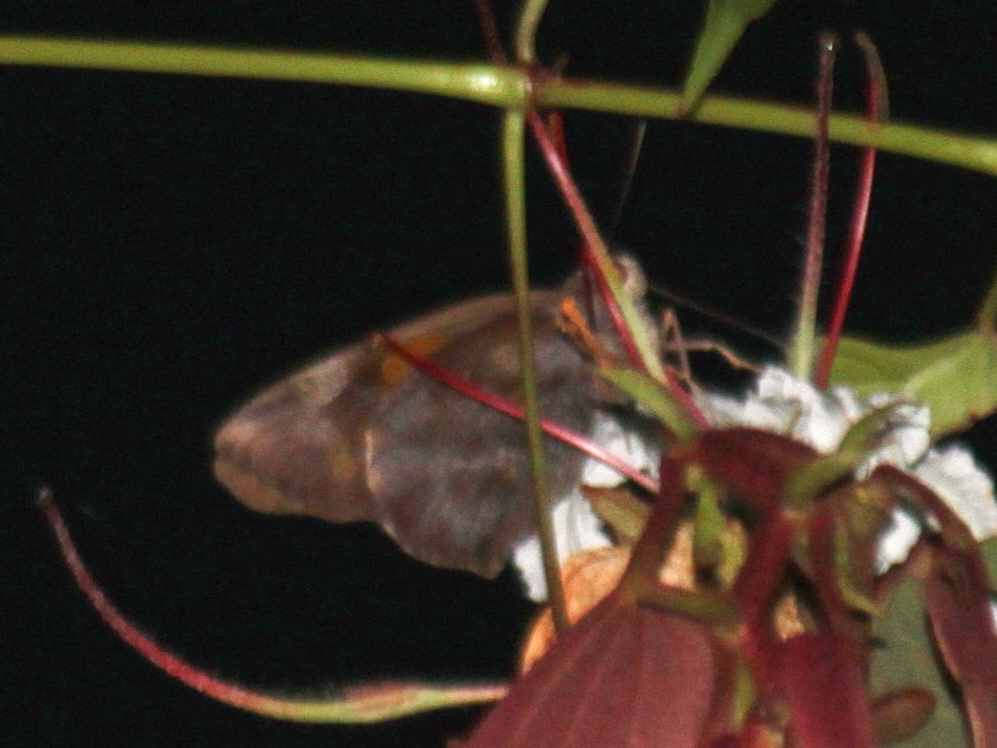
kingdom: Animalia
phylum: Arthropoda
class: Insecta
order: Lepidoptera
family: Hesperiidae
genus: Gangara
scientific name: Gangara thyrsis
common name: Giant redeye
